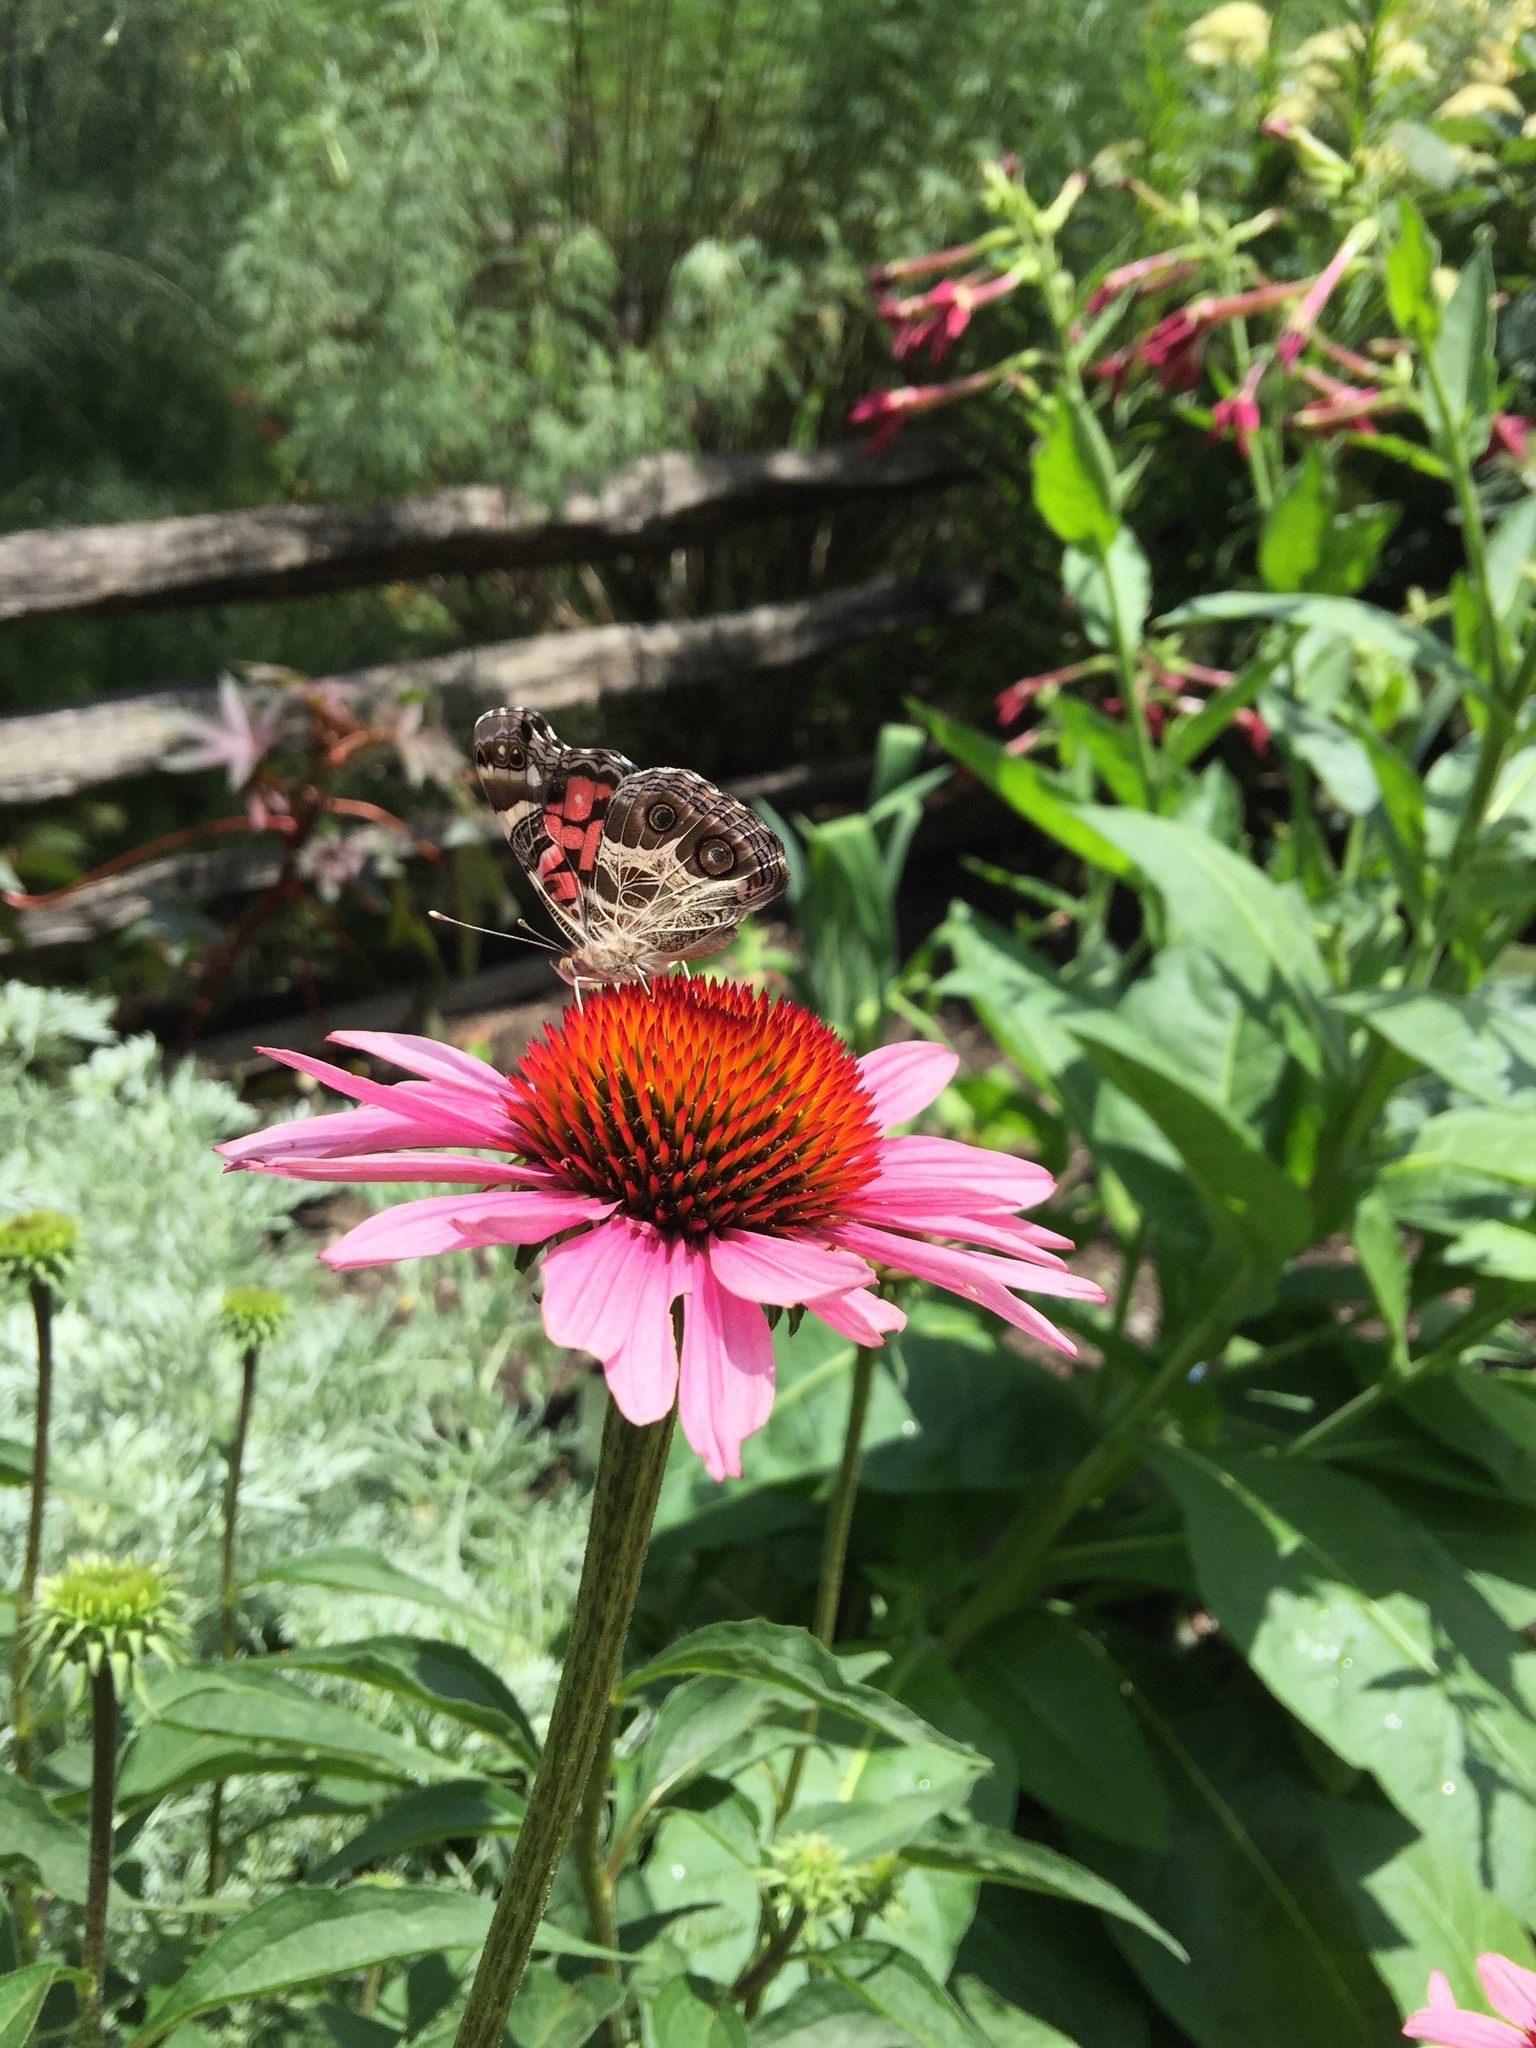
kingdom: Animalia
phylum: Arthropoda
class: Insecta
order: Lepidoptera
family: Nymphalidae
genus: Vanessa
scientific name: Vanessa virginiensis
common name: American lady
